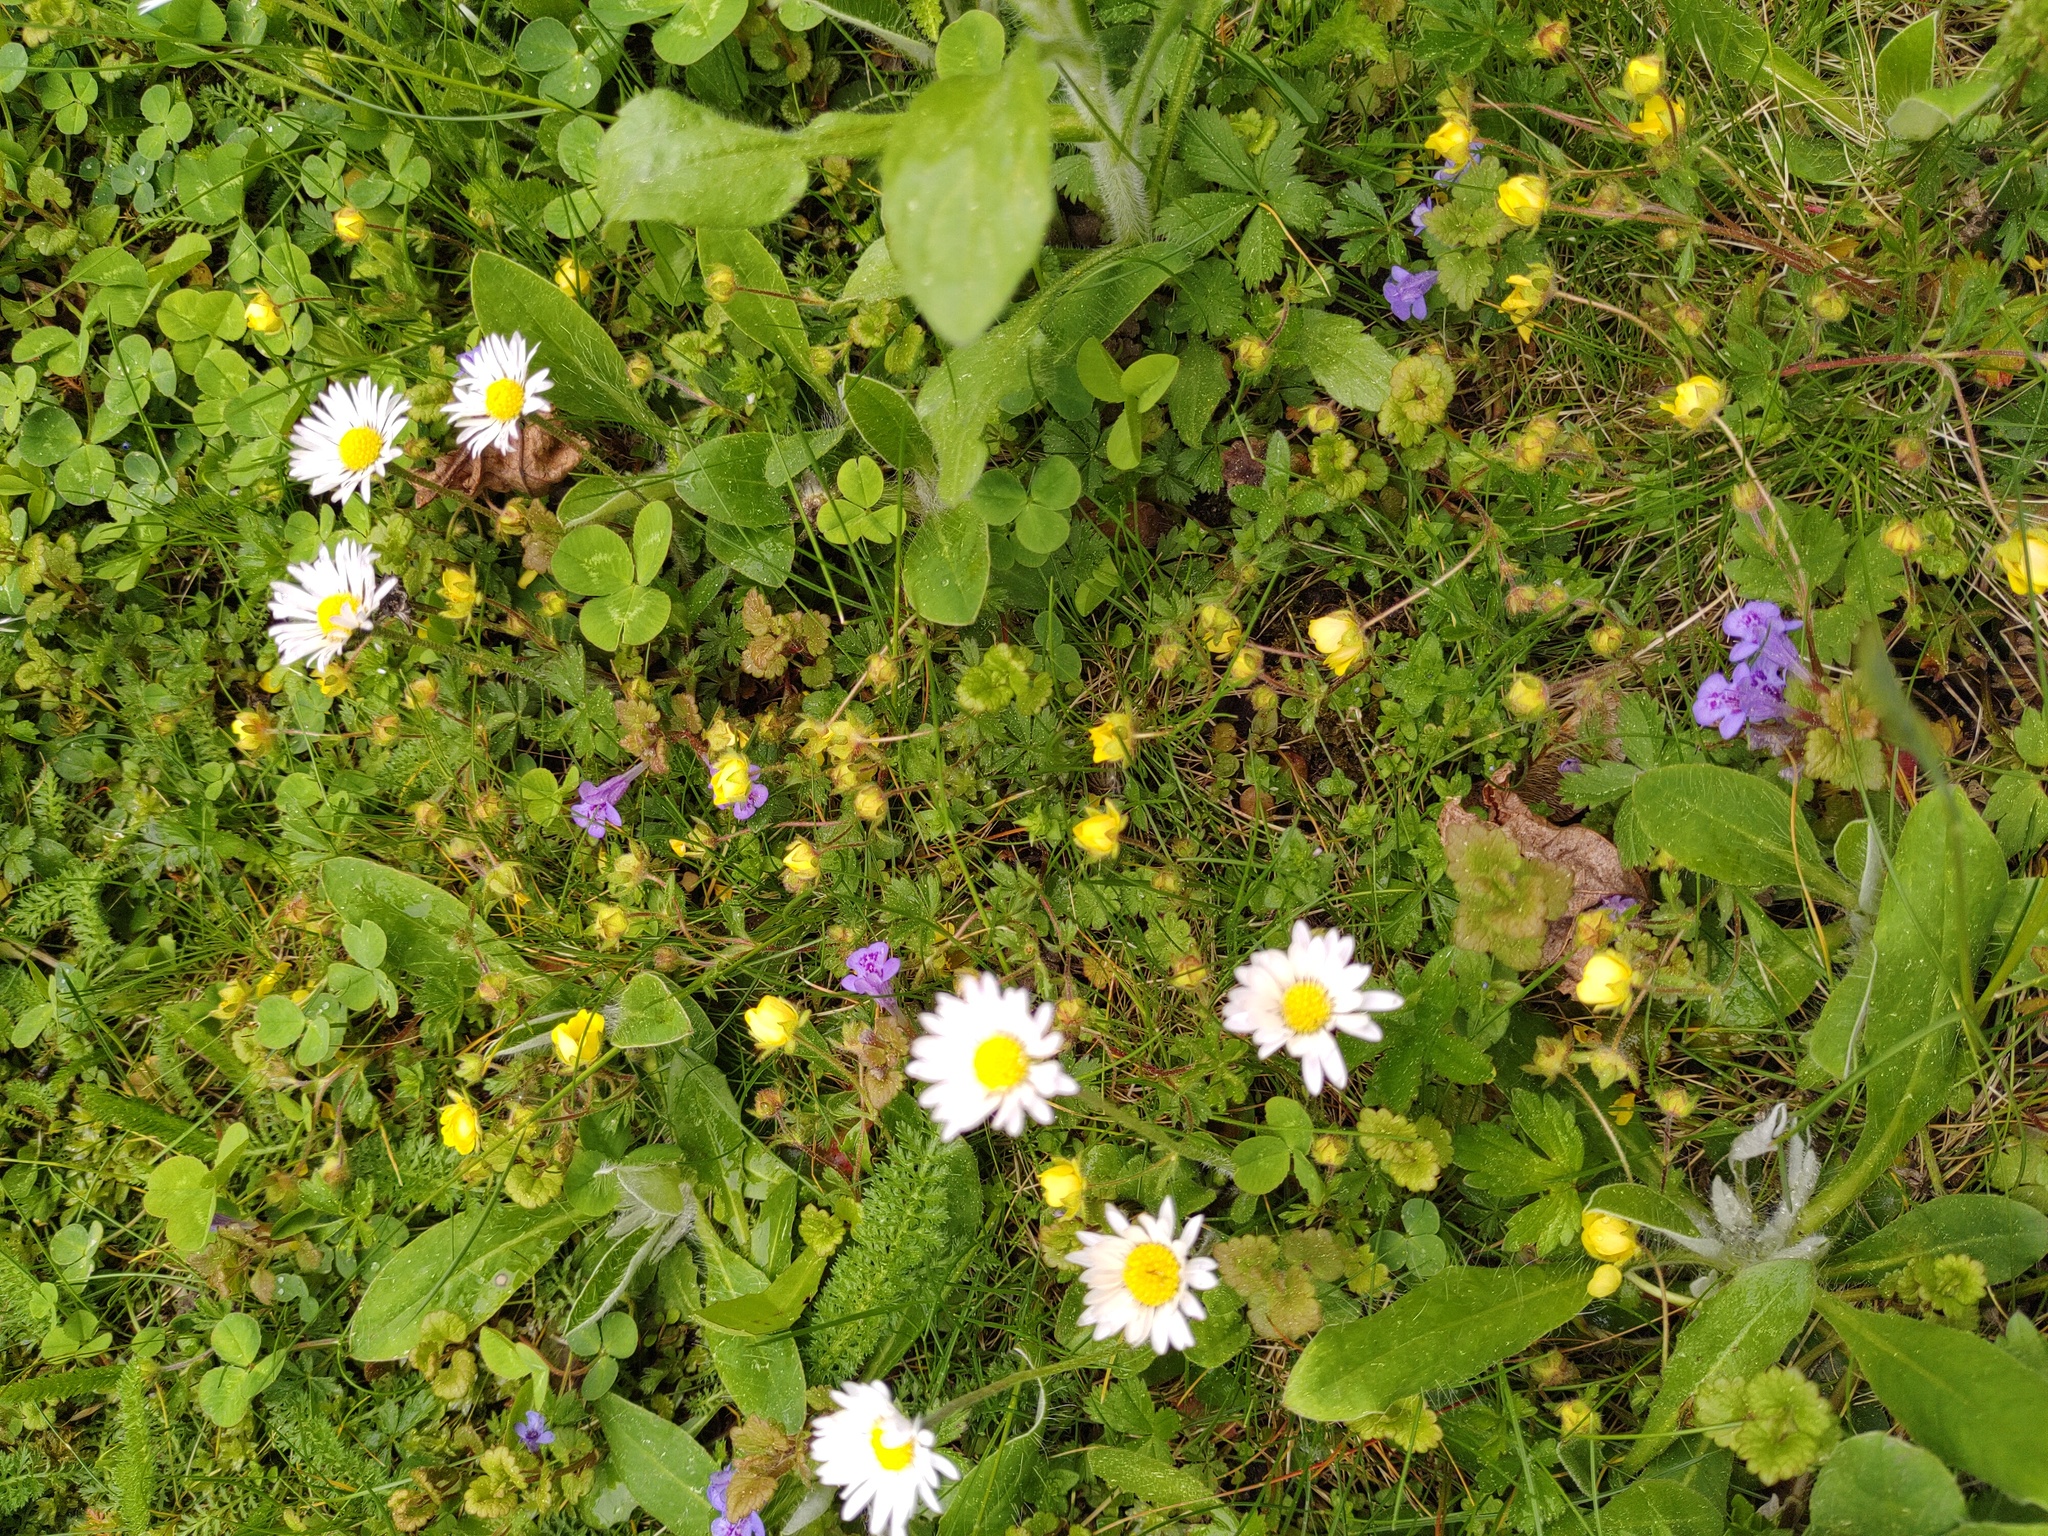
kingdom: Plantae
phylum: Tracheophyta
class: Magnoliopsida
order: Rosales
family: Rosaceae
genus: Potentilla
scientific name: Potentilla verna
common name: Spring cinquefoil
